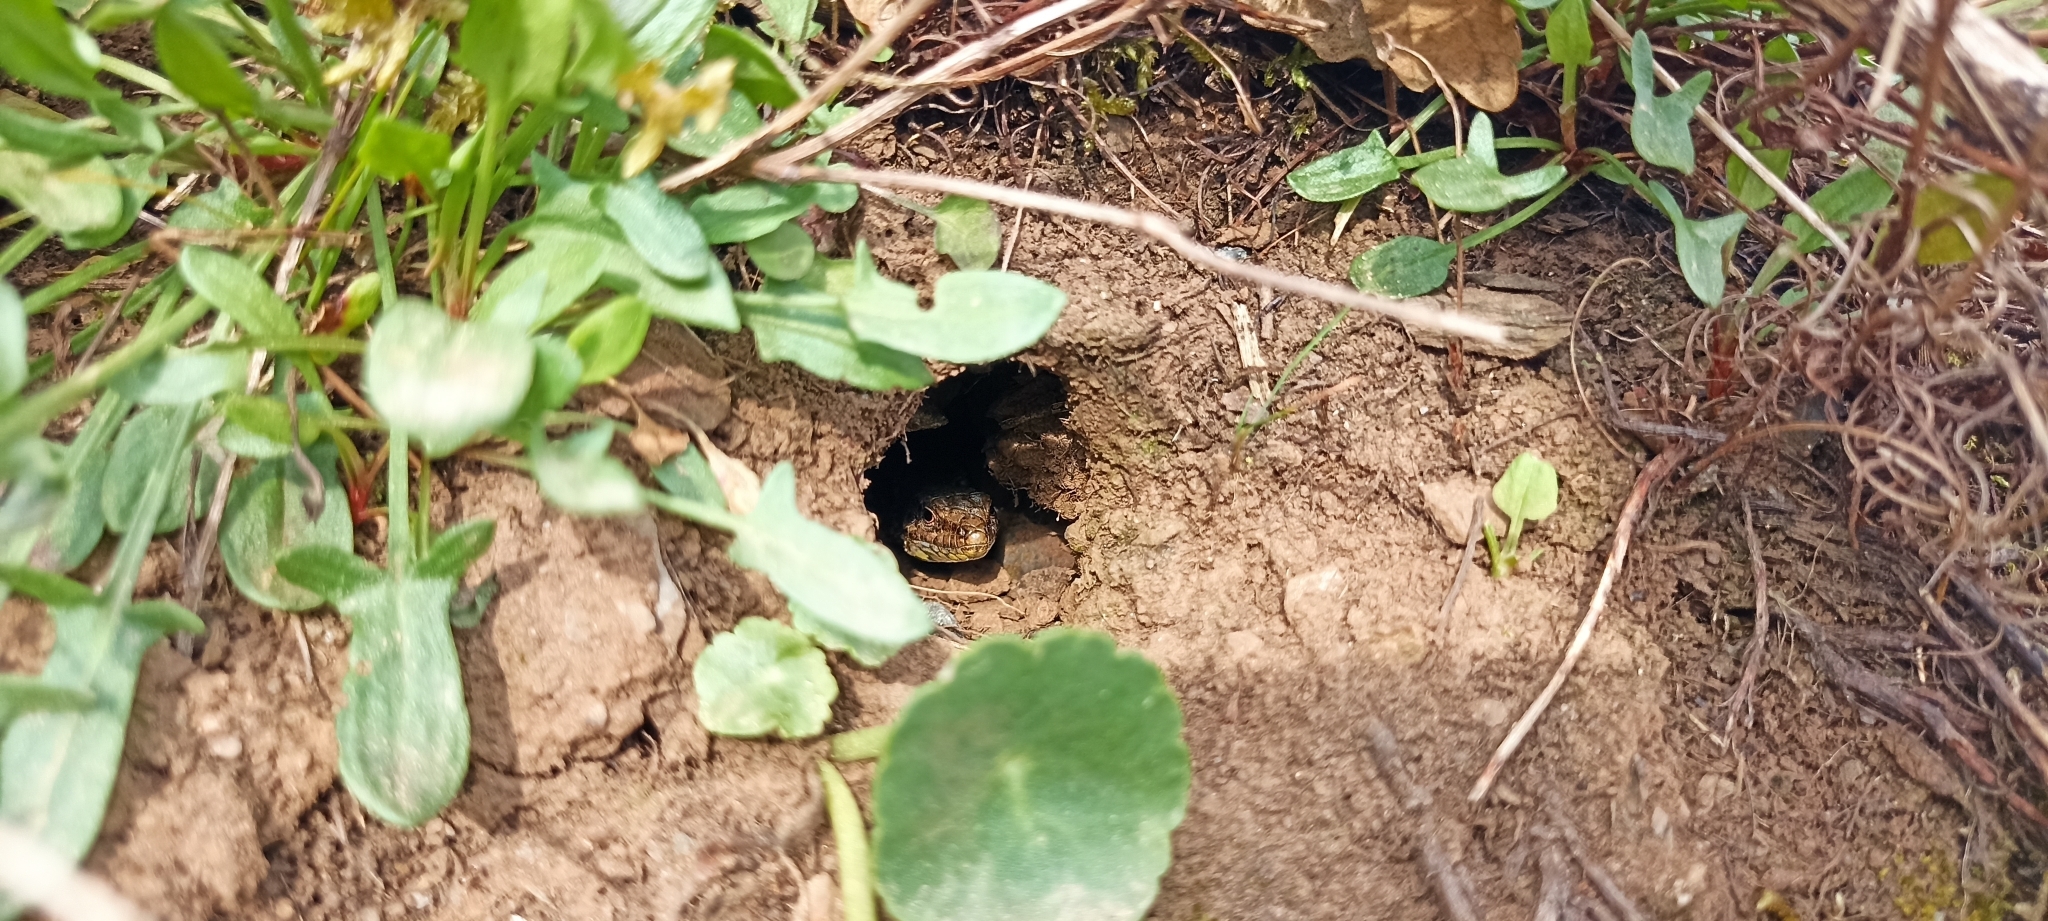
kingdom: Animalia
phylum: Chordata
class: Squamata
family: Lacertidae
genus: Podarcis
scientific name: Podarcis muralis
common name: Common wall lizard
